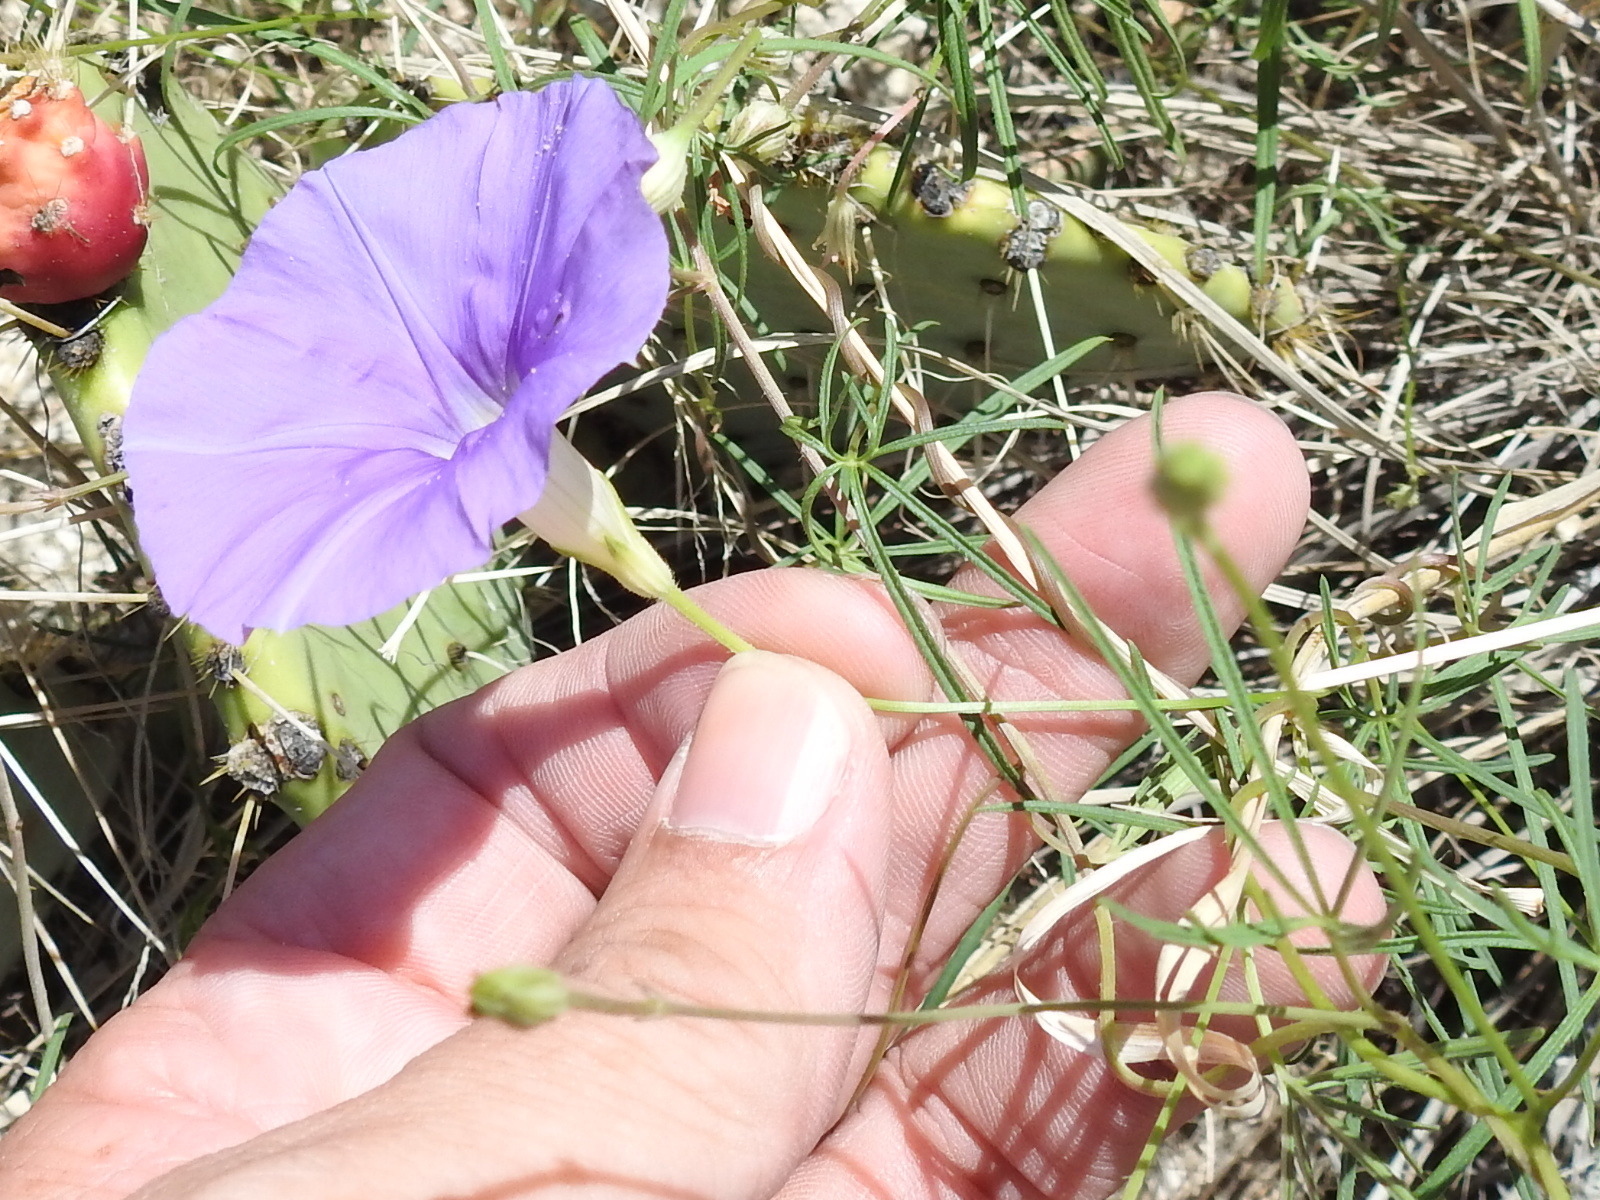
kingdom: Plantae
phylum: Tracheophyta
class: Magnoliopsida
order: Solanales
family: Convolvulaceae
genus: Ipomoea
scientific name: Ipomoea ternifolia
